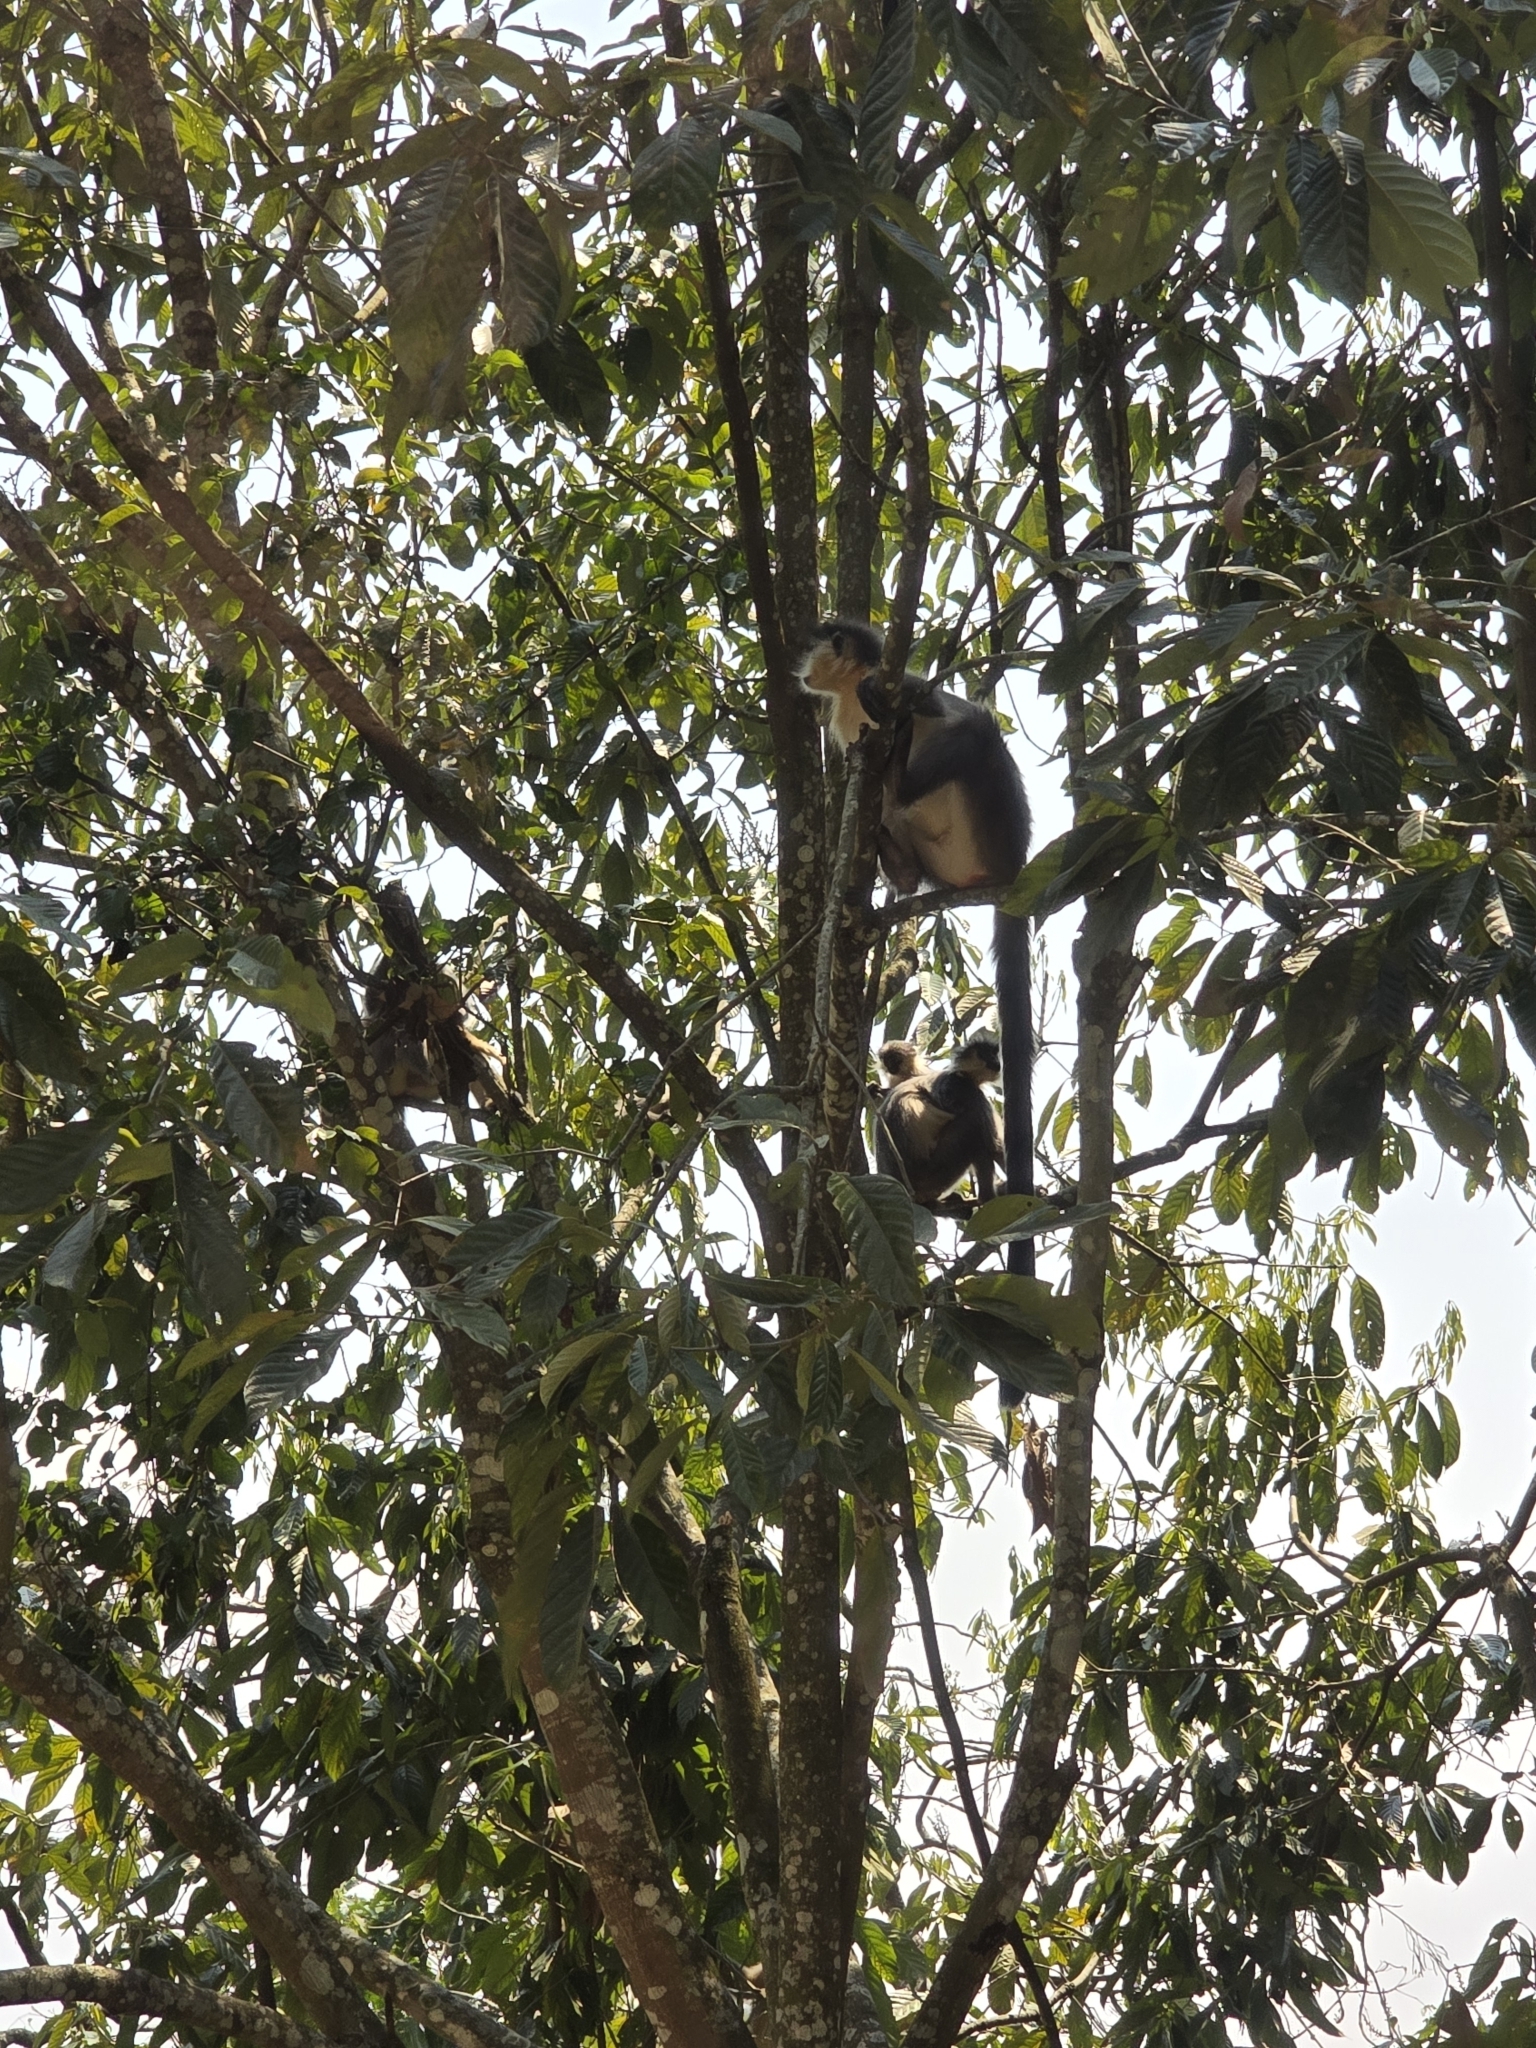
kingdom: Animalia
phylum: Chordata
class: Mammalia
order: Primates
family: Cercopithecidae
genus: Trachypithecus
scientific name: Trachypithecus pileatus
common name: Capped langur
